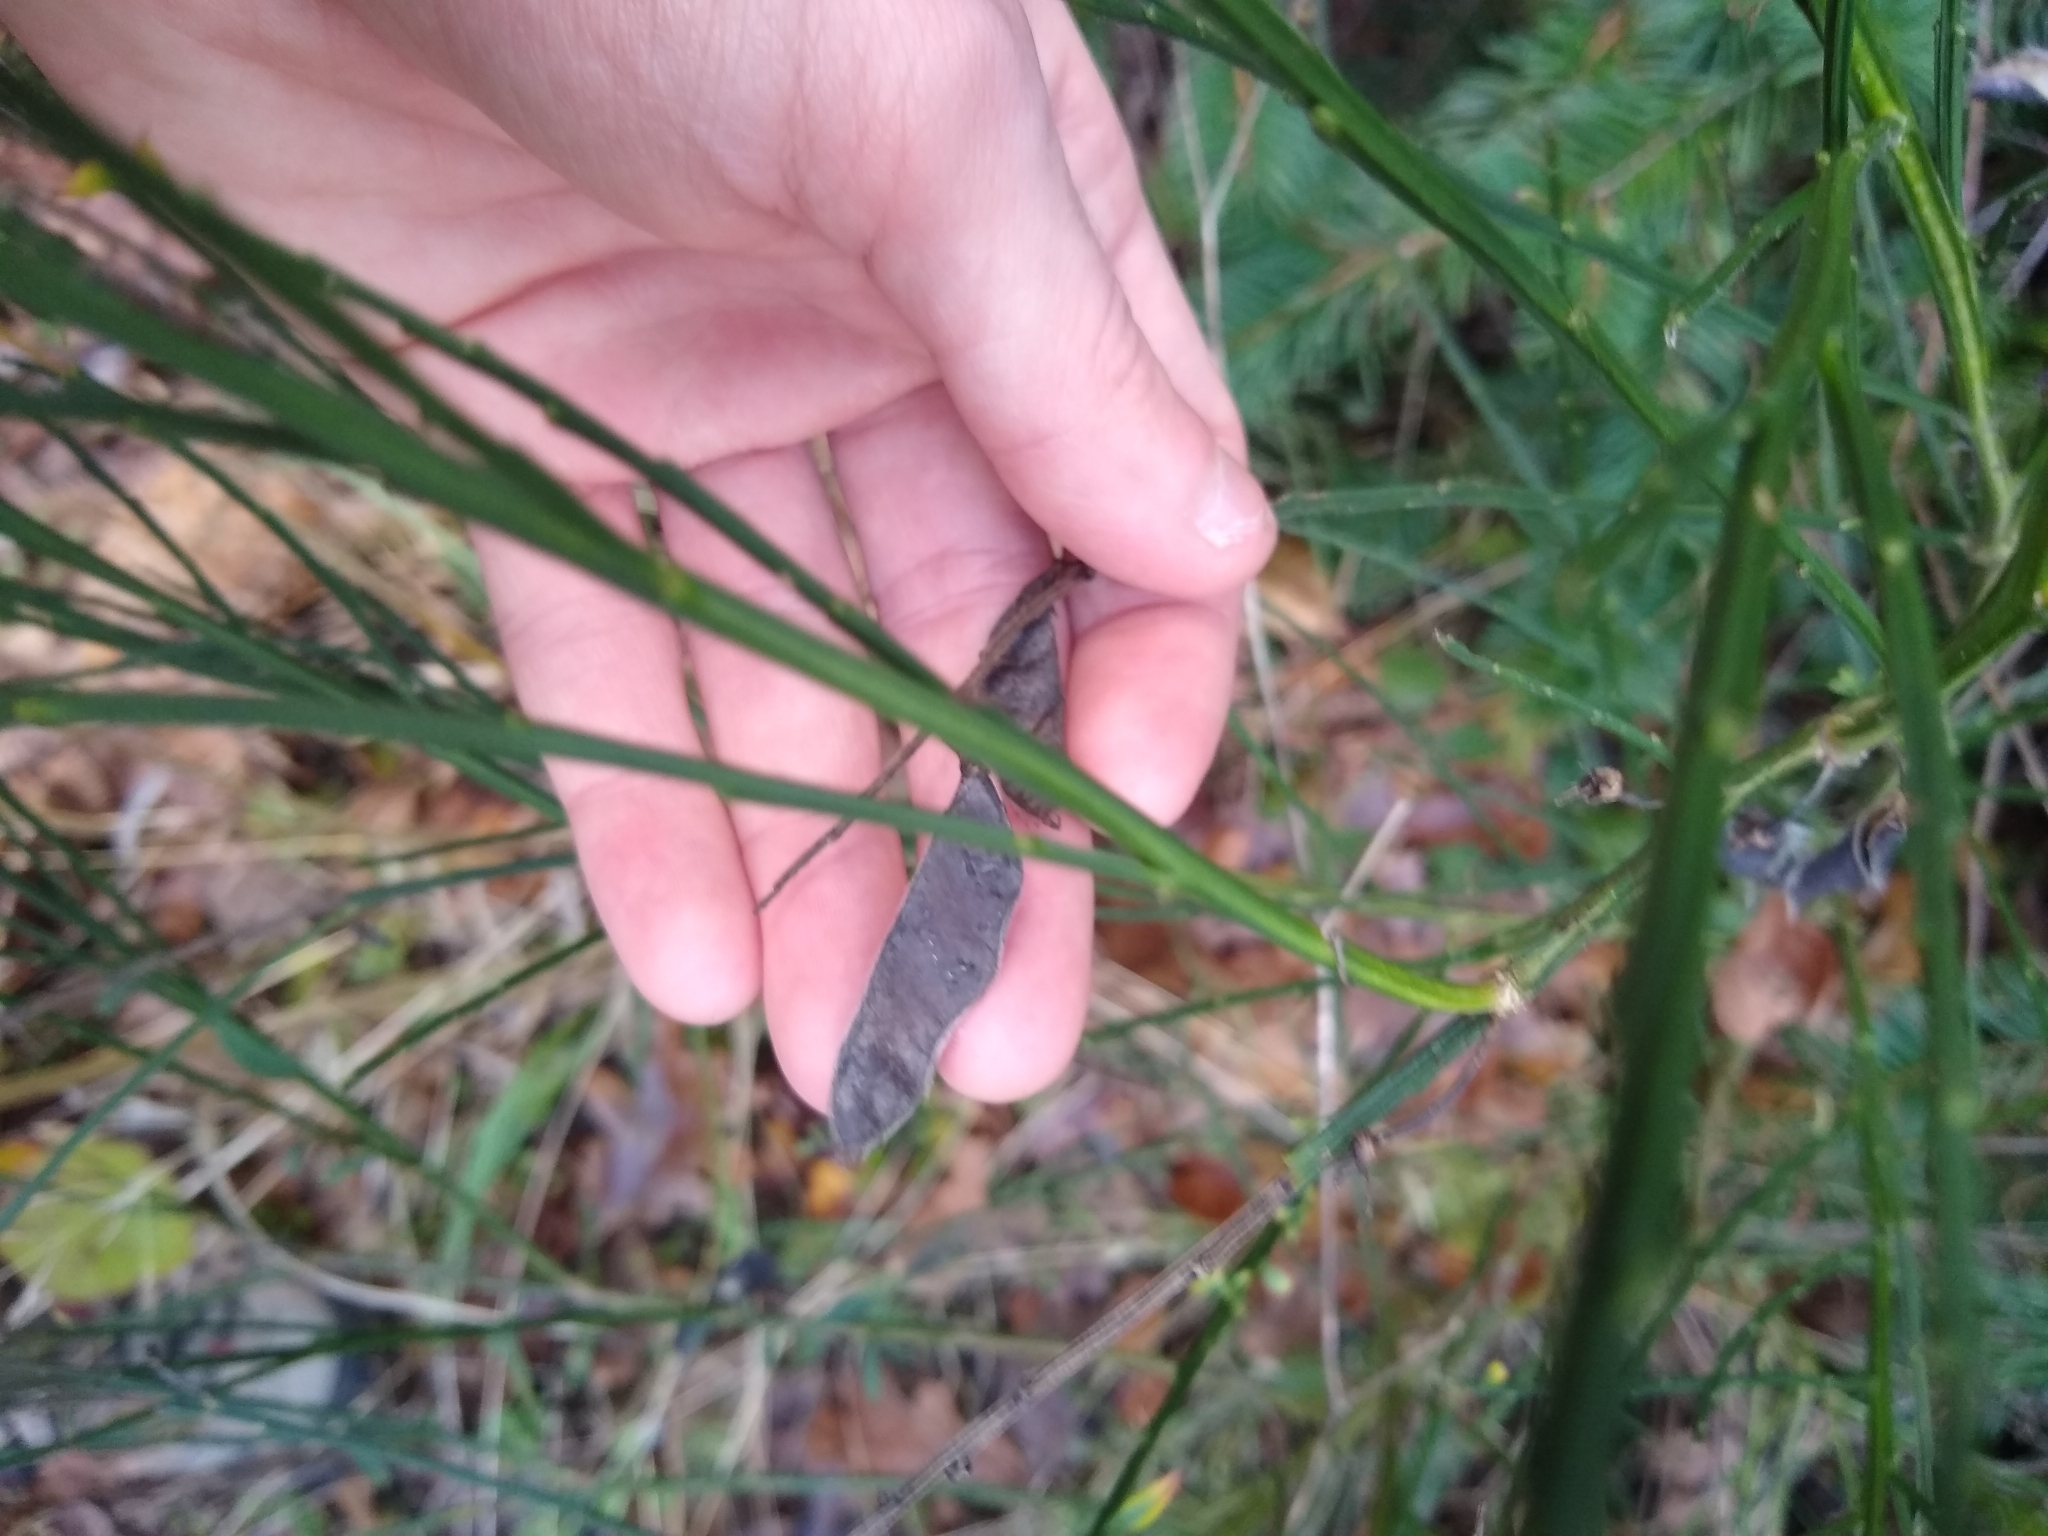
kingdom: Plantae
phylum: Tracheophyta
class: Magnoliopsida
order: Fabales
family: Fabaceae
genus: Cytisus
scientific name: Cytisus scoparius
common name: Scotch broom
